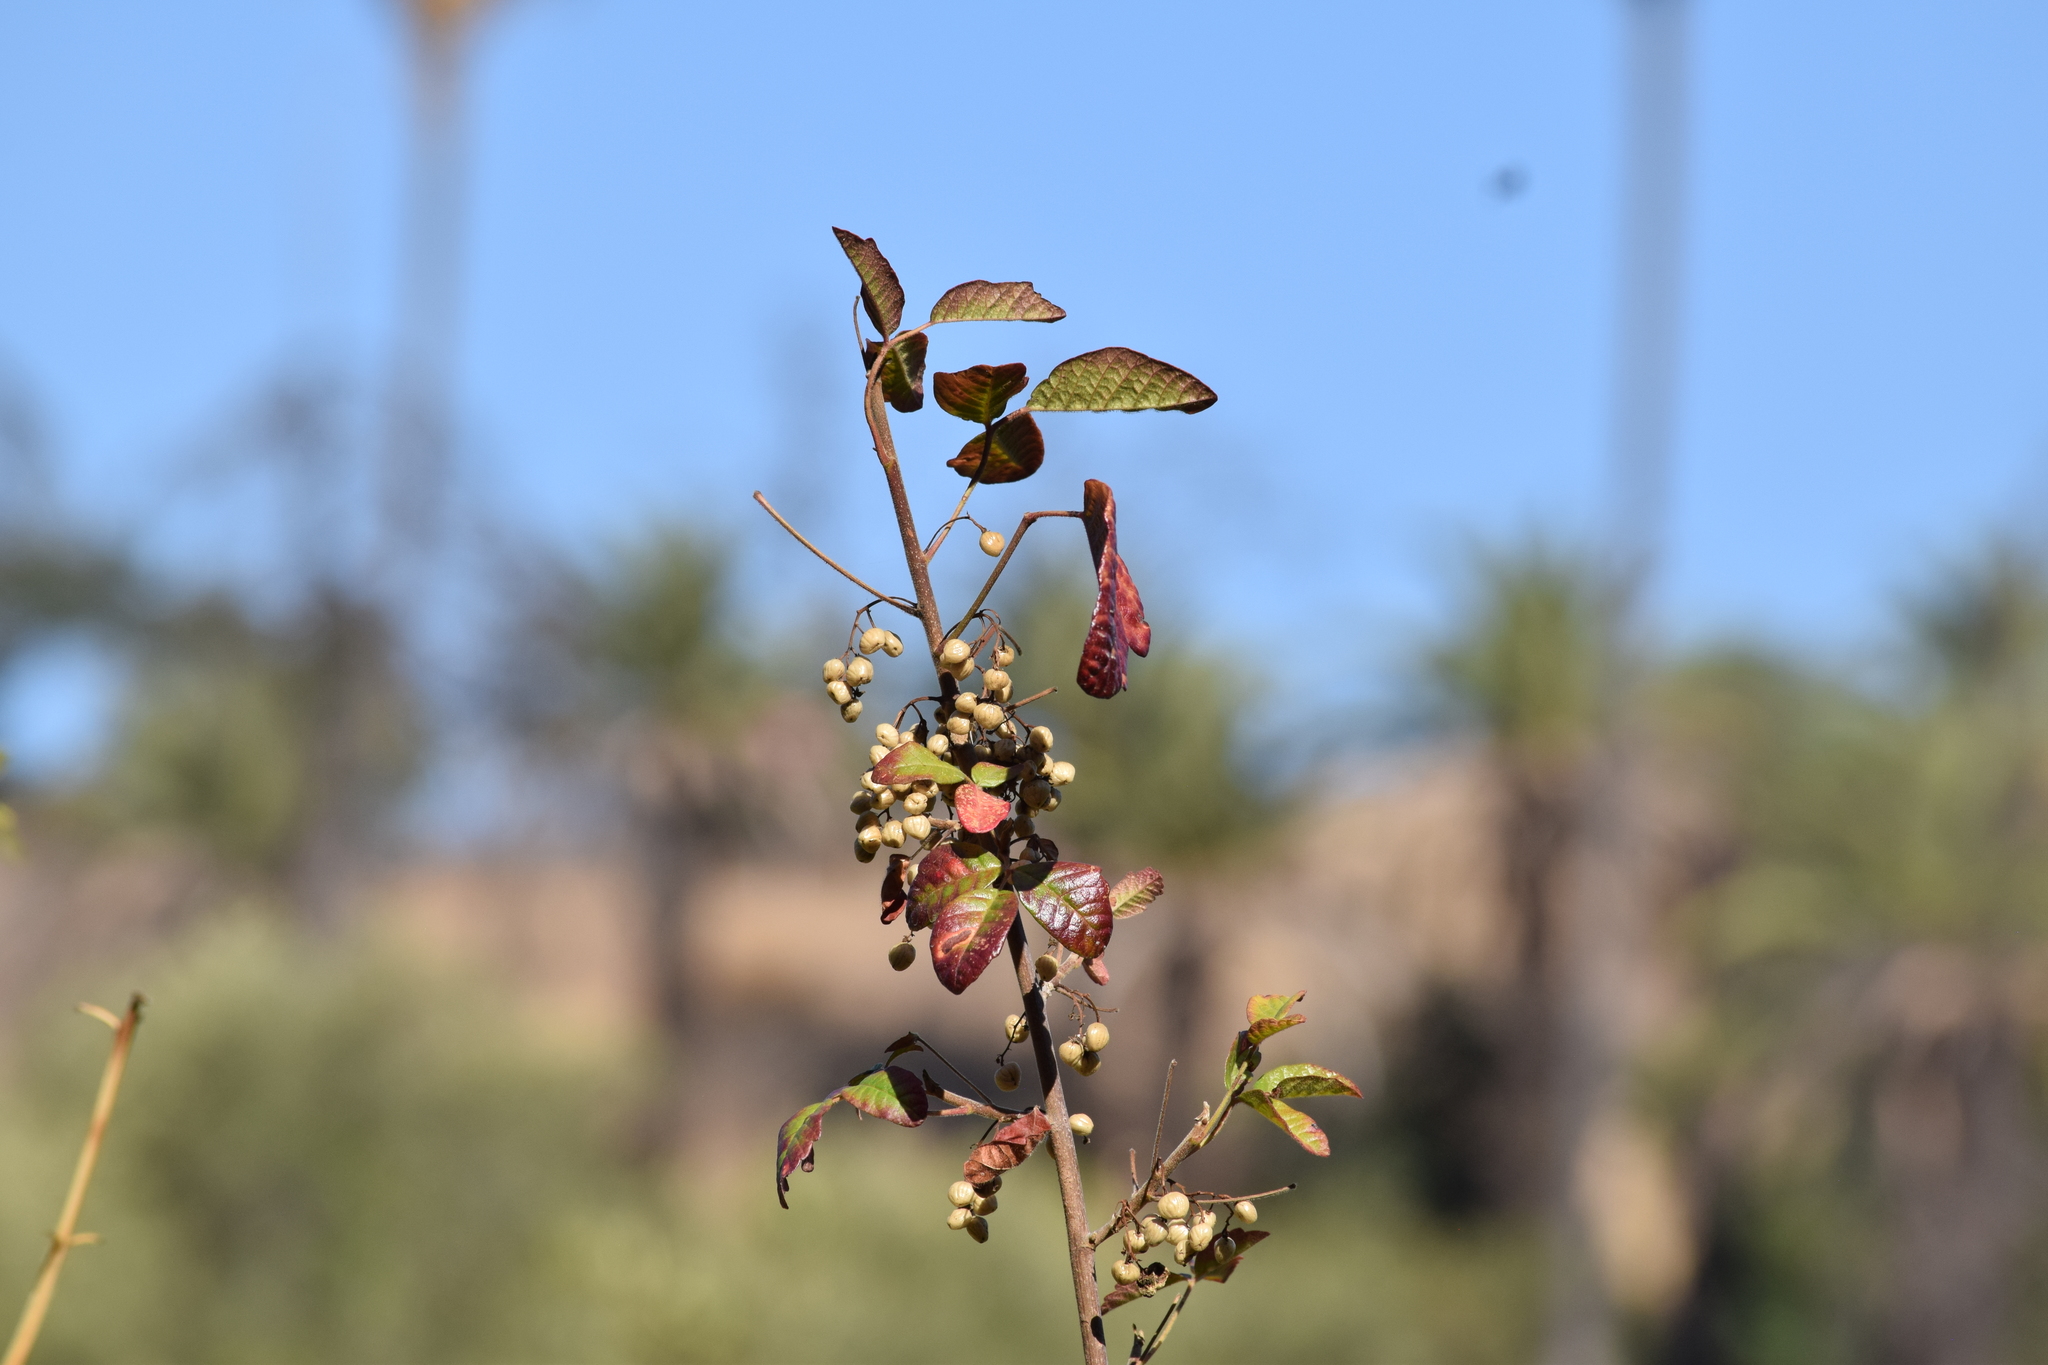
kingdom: Plantae
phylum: Tracheophyta
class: Magnoliopsida
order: Sapindales
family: Anacardiaceae
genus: Toxicodendron
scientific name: Toxicodendron diversilobum
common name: Pacific poison-oak
